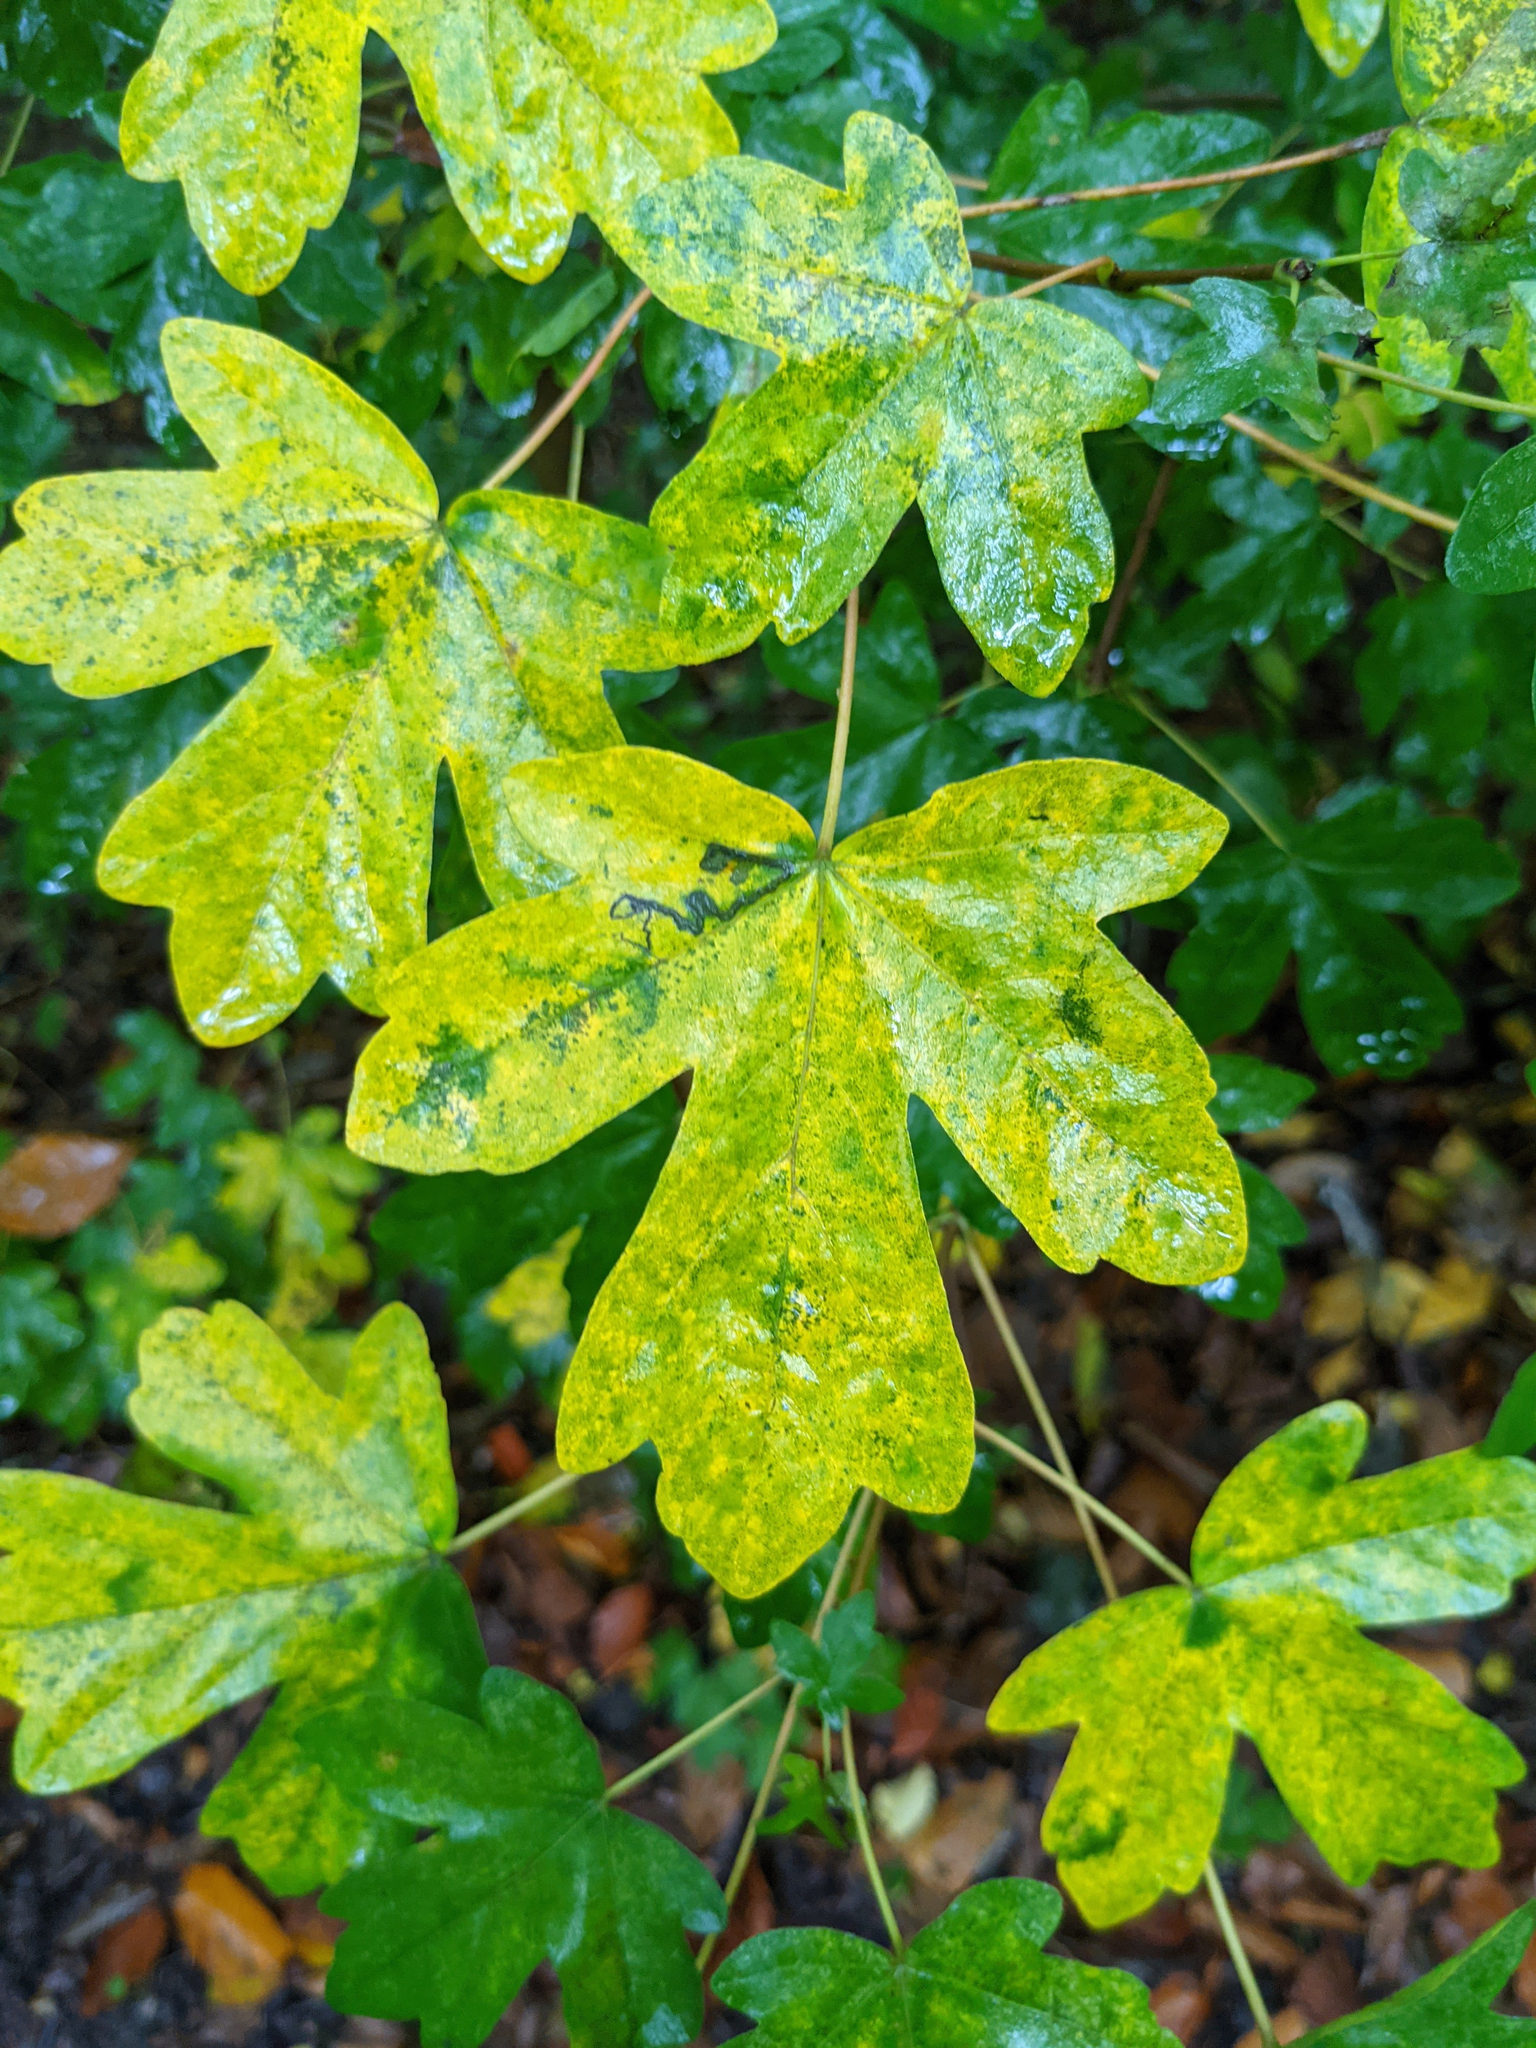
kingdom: Plantae
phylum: Tracheophyta
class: Magnoliopsida
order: Sapindales
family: Sapindaceae
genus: Acer
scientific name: Acer campestre
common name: Field maple
